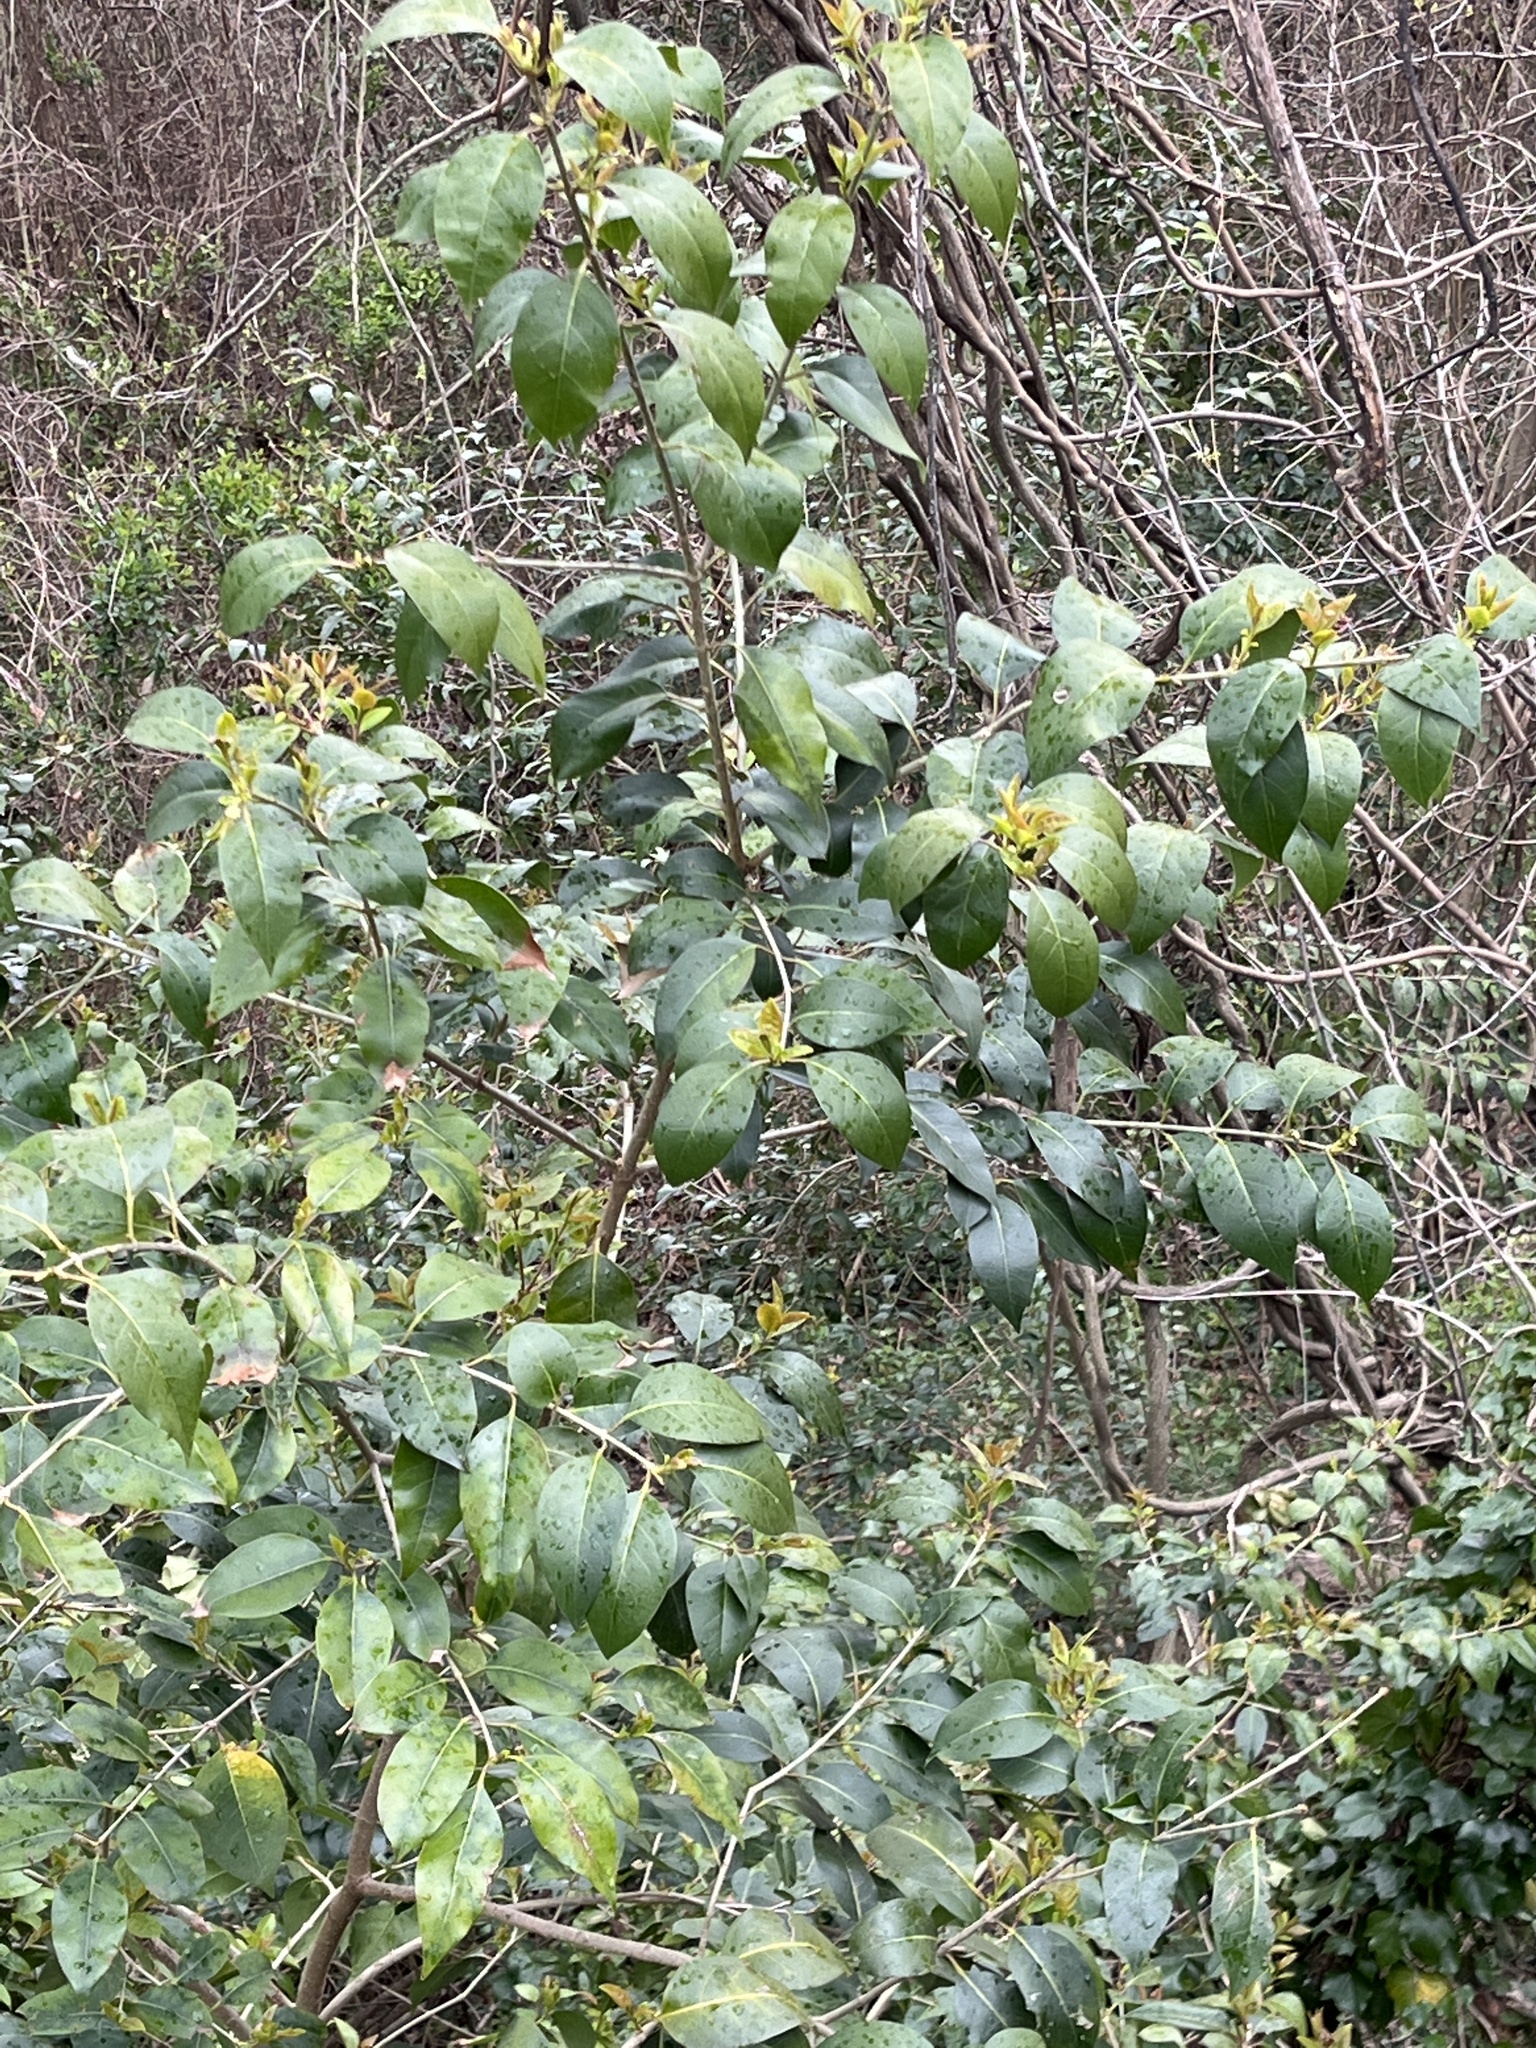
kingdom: Plantae
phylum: Tracheophyta
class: Magnoliopsida
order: Lamiales
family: Oleaceae
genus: Ligustrum
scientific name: Ligustrum lucidum
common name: Glossy privet
